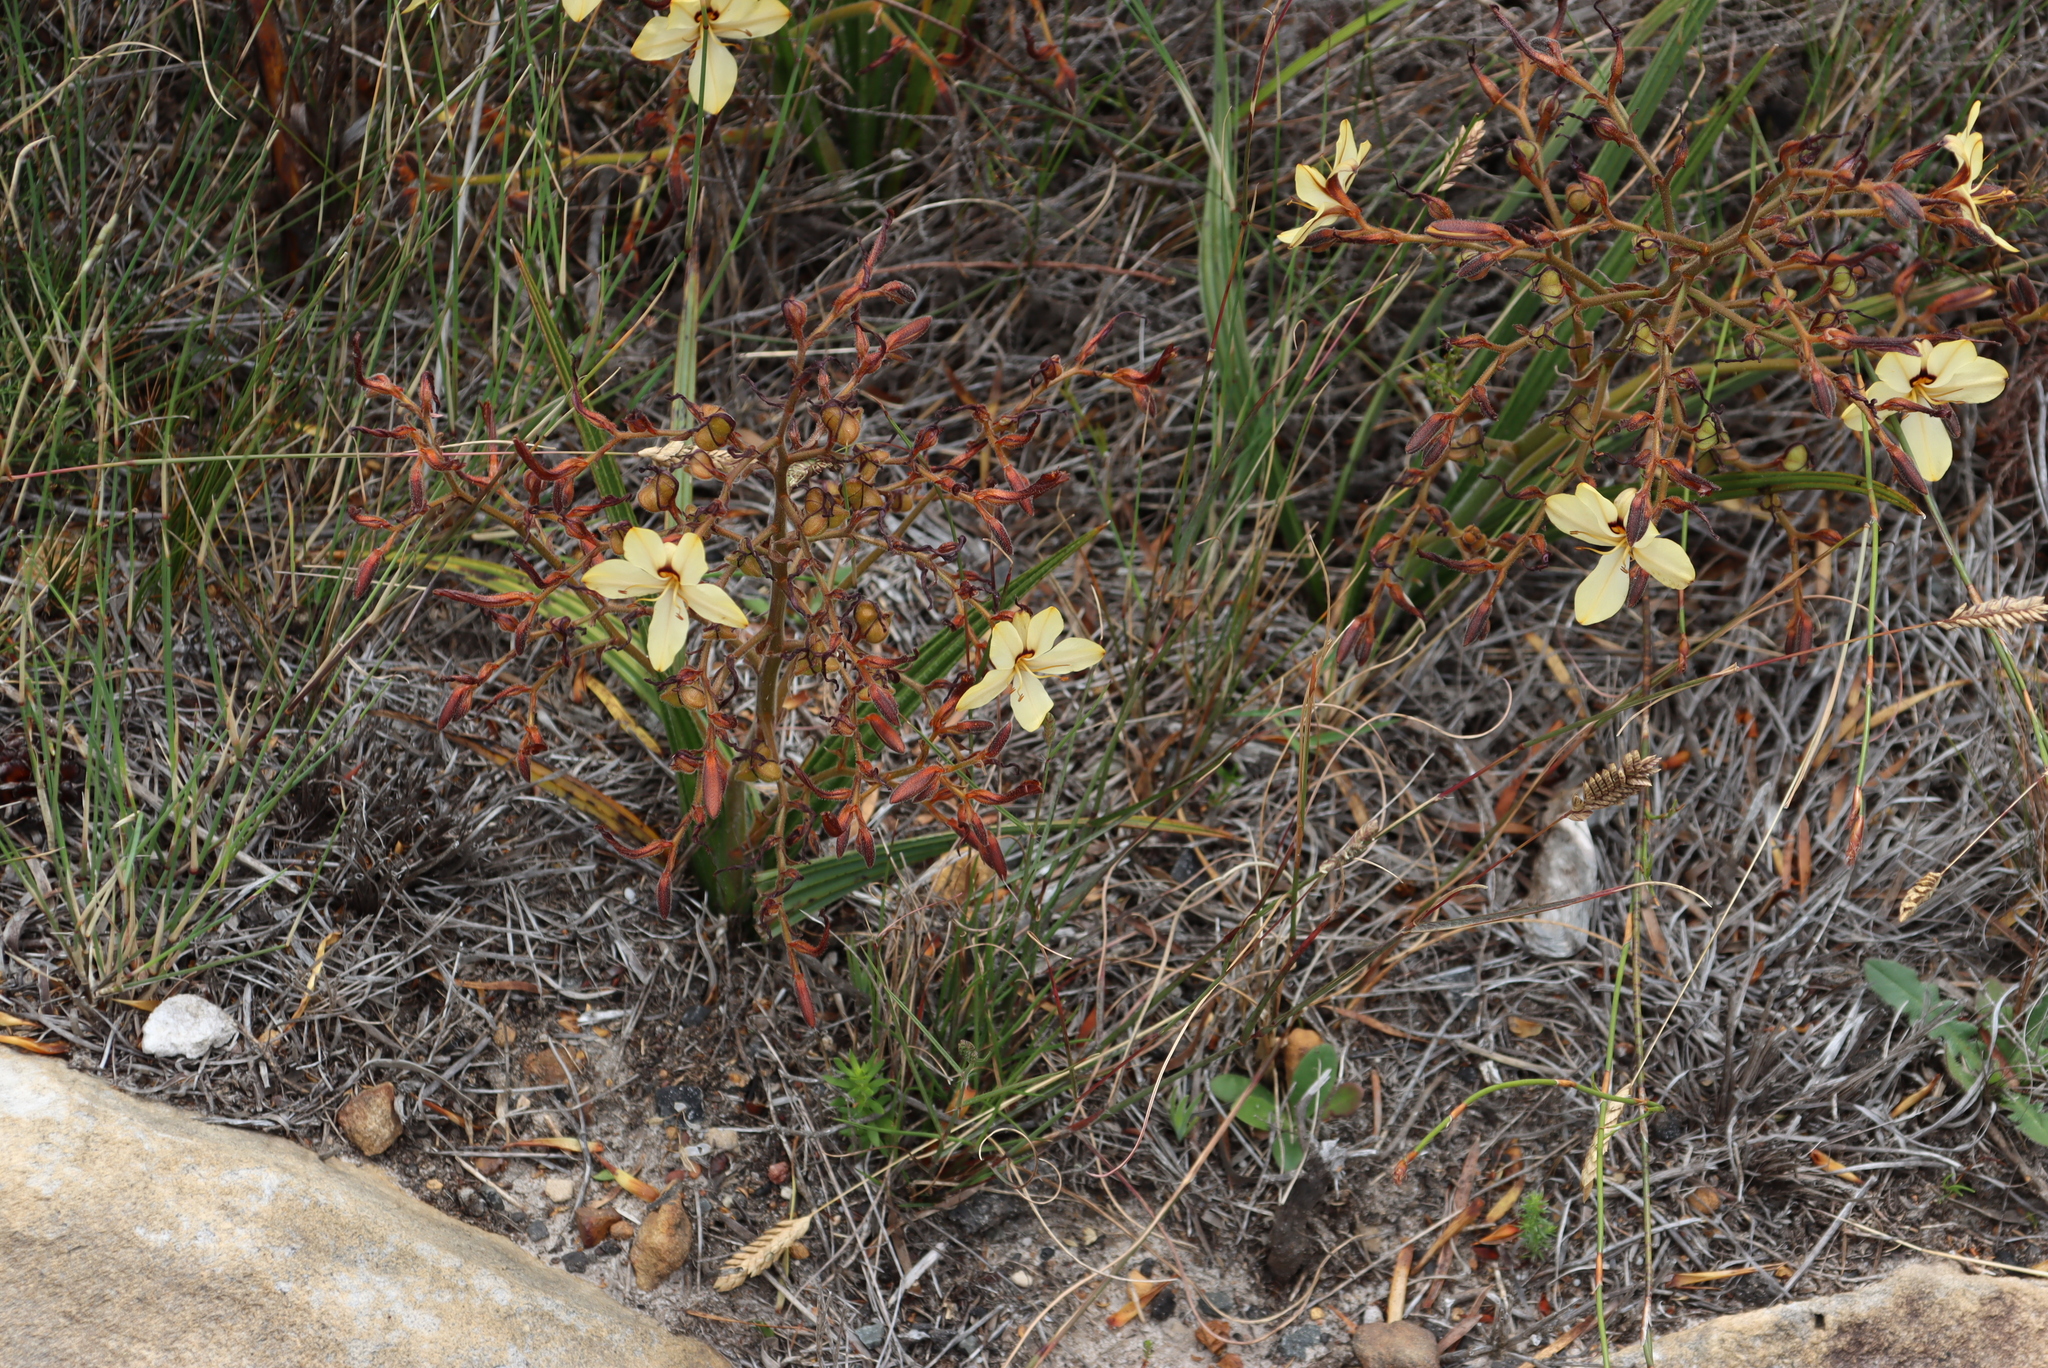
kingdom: Plantae
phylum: Tracheophyta
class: Liliopsida
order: Commelinales
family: Haemodoraceae
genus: Wachendorfia
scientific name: Wachendorfia paniculata
